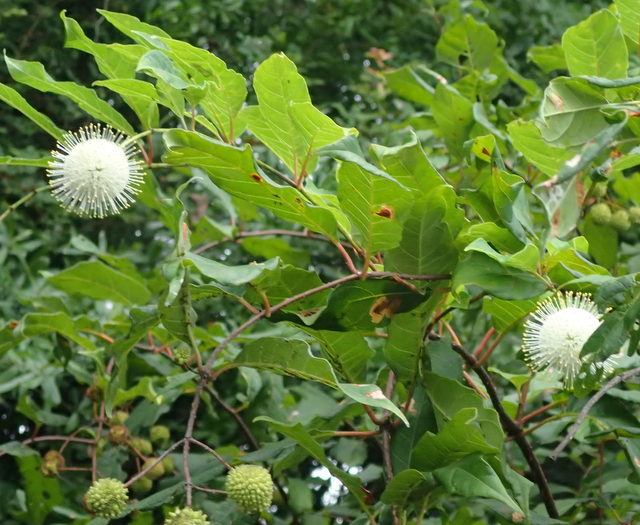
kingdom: Plantae
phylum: Tracheophyta
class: Magnoliopsida
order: Gentianales
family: Rubiaceae
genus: Cephalanthus
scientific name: Cephalanthus occidentalis
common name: Button-willow
